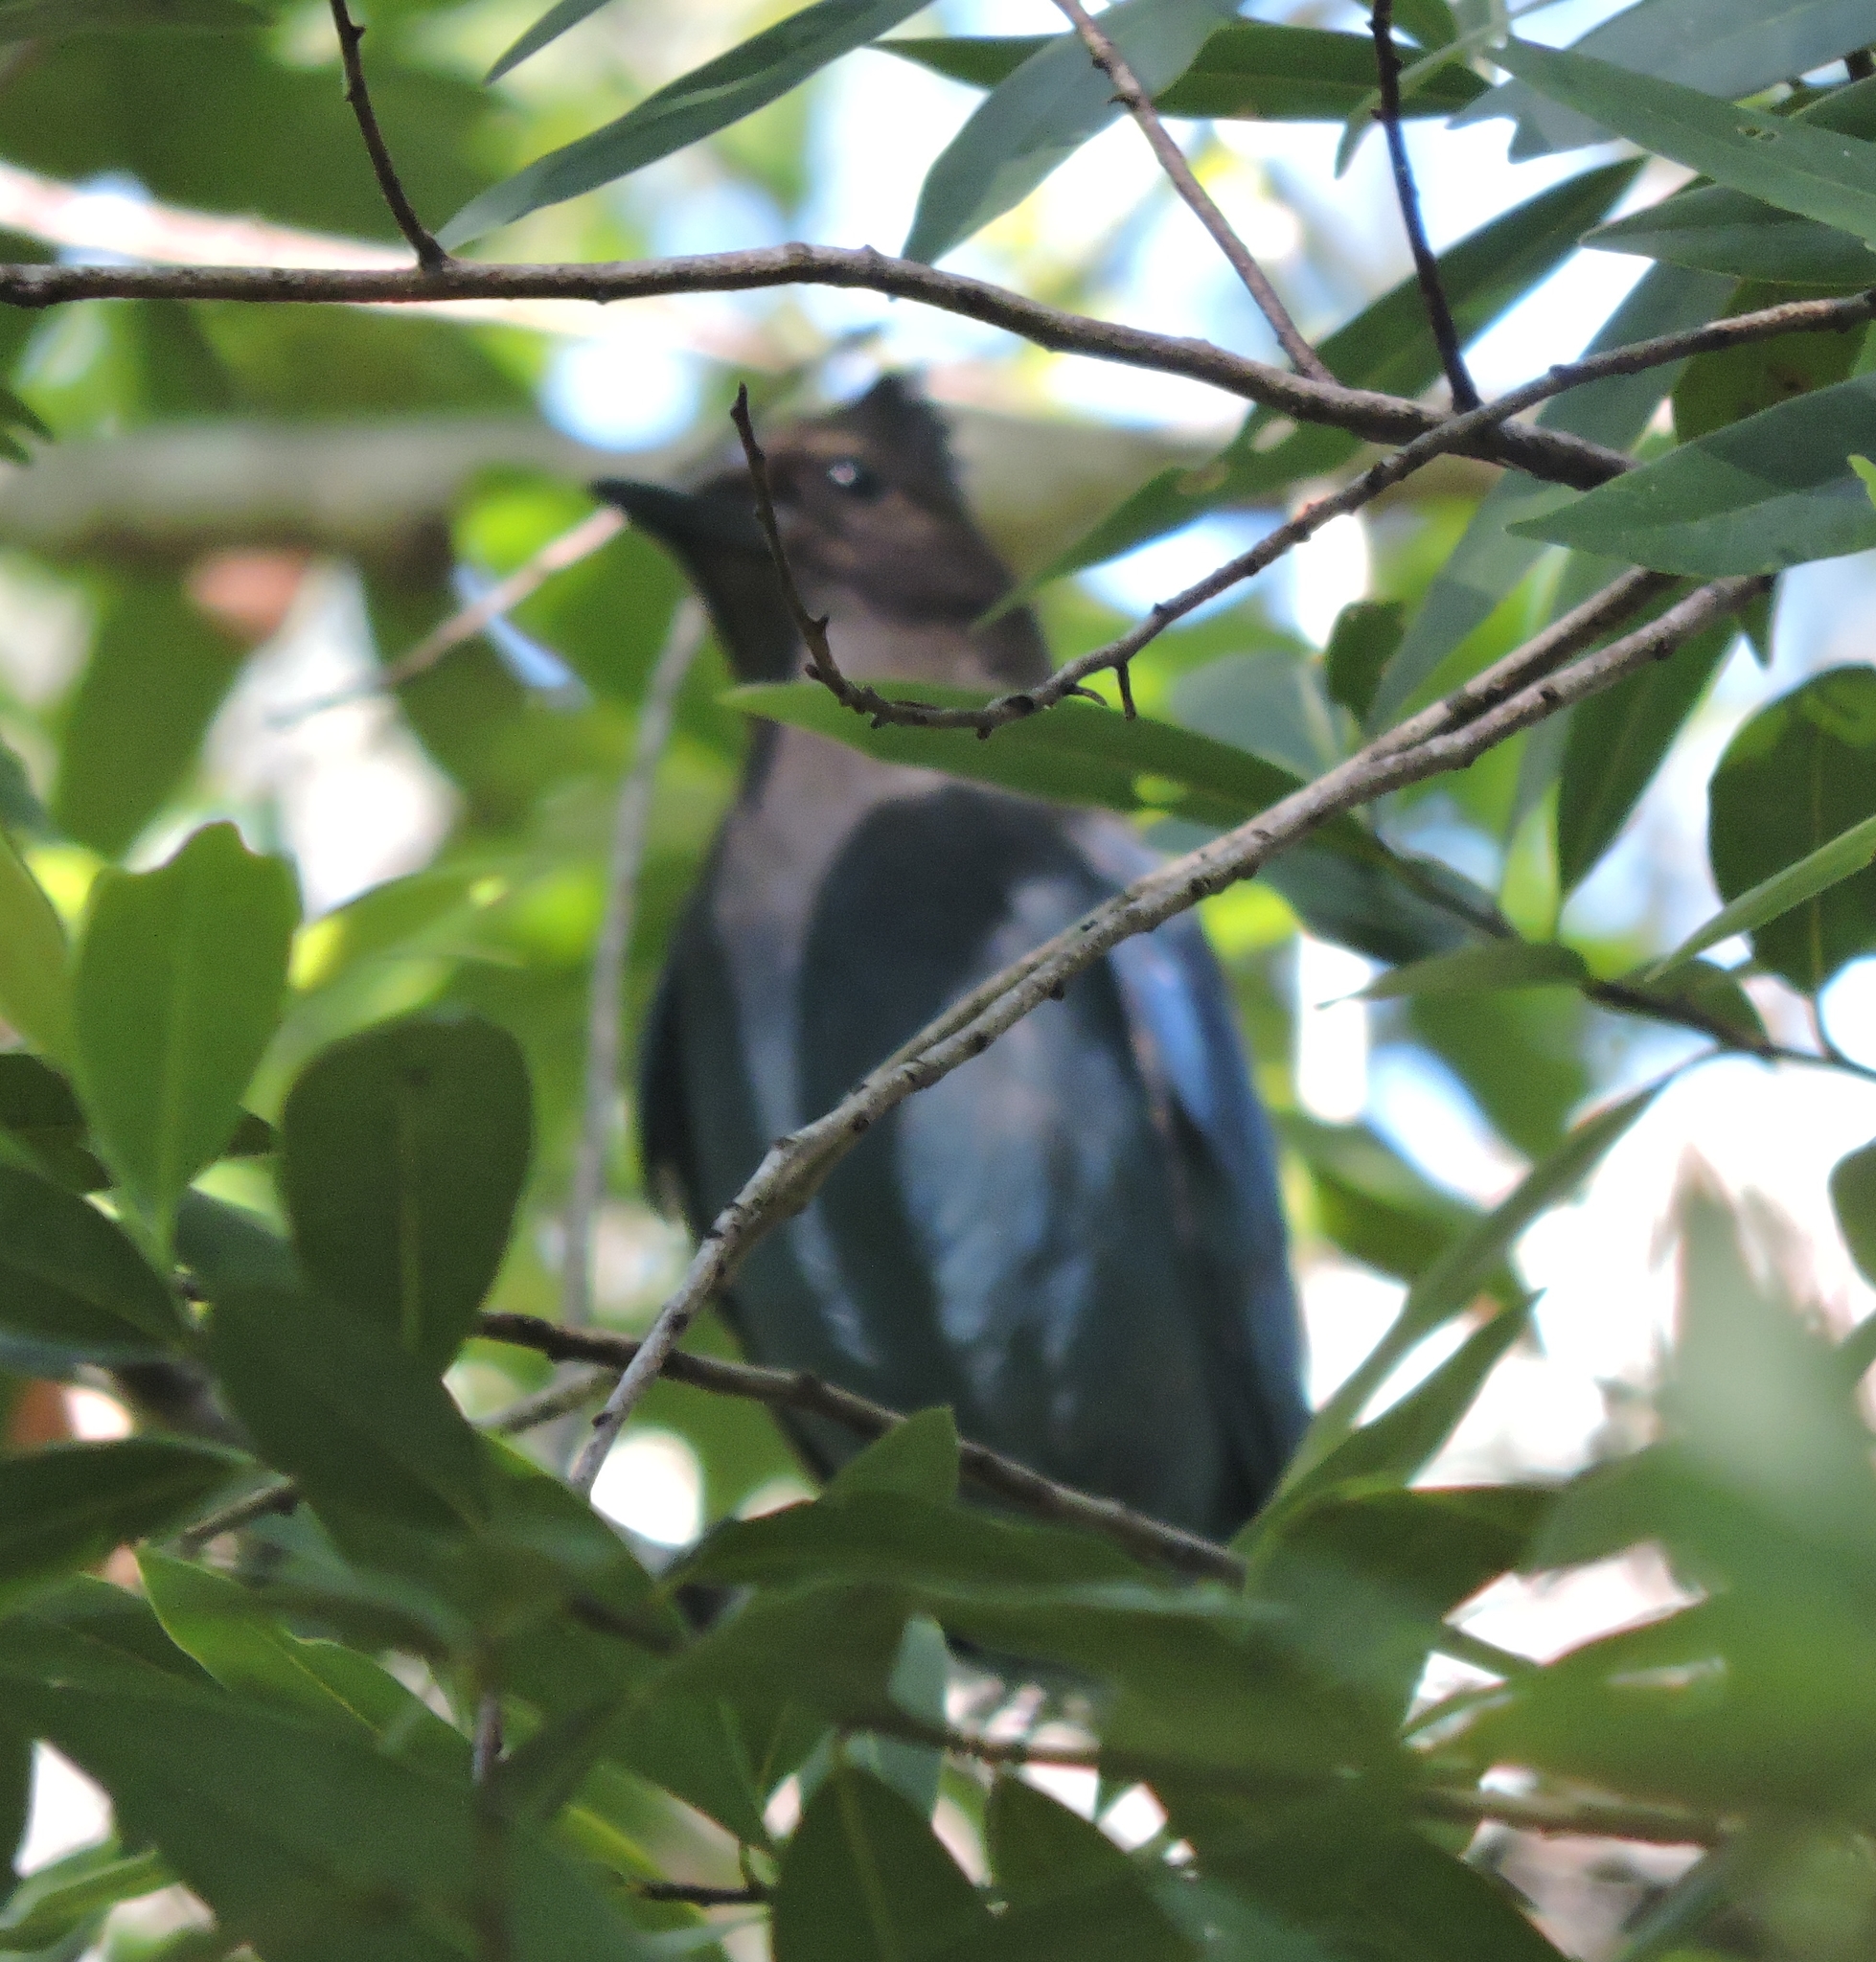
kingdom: Animalia
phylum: Chordata
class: Aves
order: Passeriformes
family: Corvidae
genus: Cyanocitta
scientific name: Cyanocitta stelleri
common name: Steller's jay
